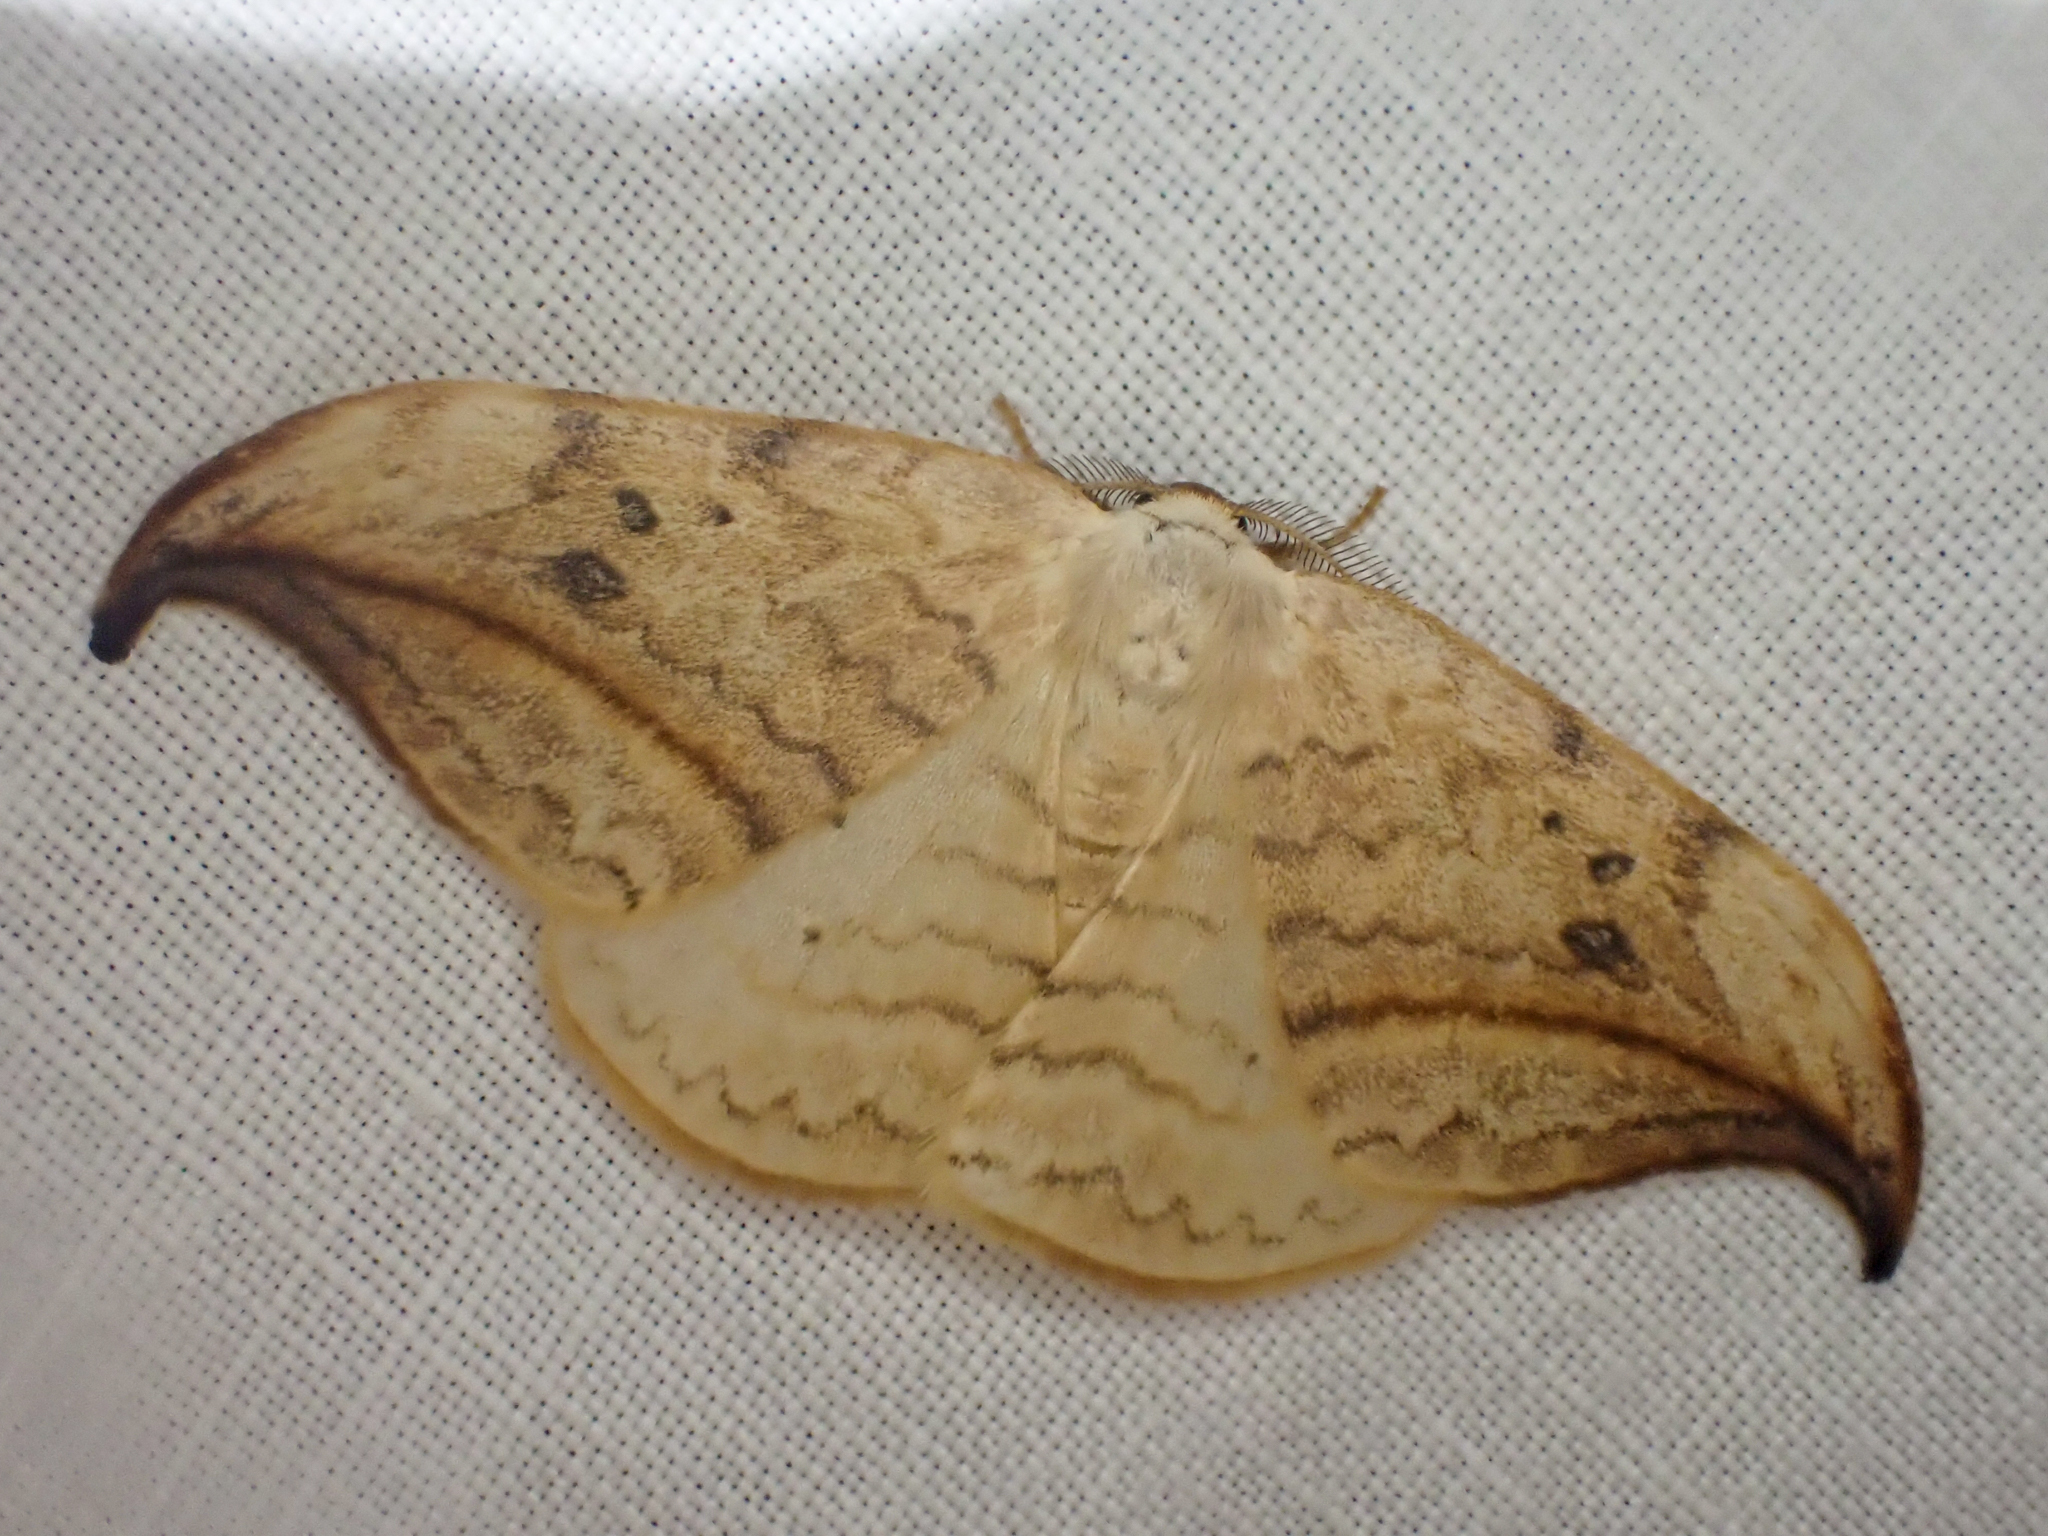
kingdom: Animalia
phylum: Arthropoda
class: Insecta
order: Lepidoptera
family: Drepanidae
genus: Drepana
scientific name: Drepana arcuata
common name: Arched hooktip moth
